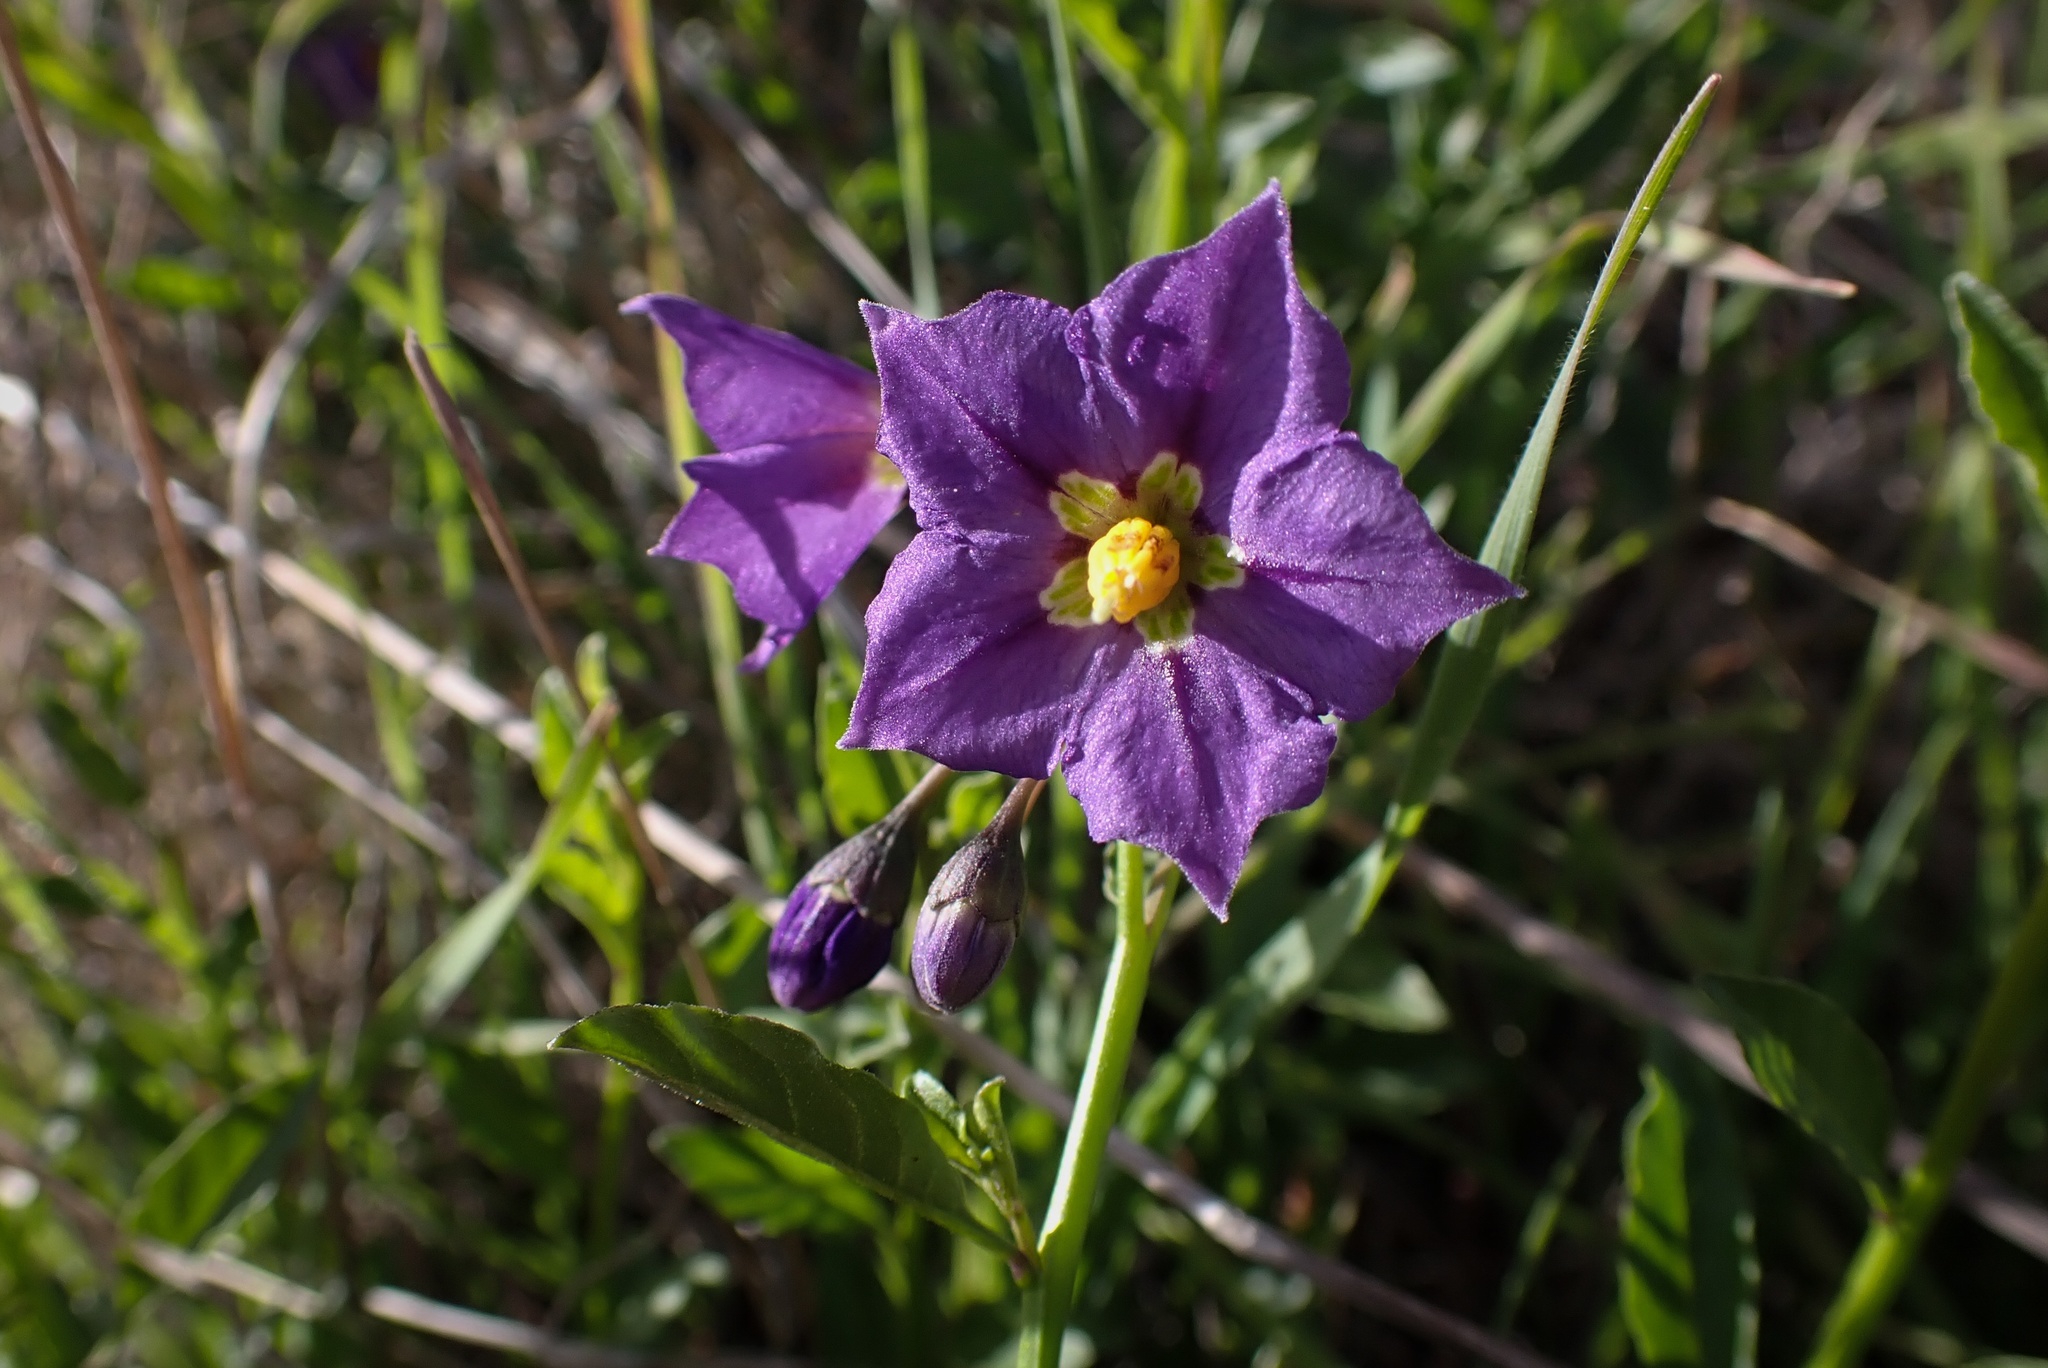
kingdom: Plantae
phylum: Tracheophyta
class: Magnoliopsida
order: Solanales
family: Solanaceae
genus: Solanum
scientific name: Solanum umbelliferum
